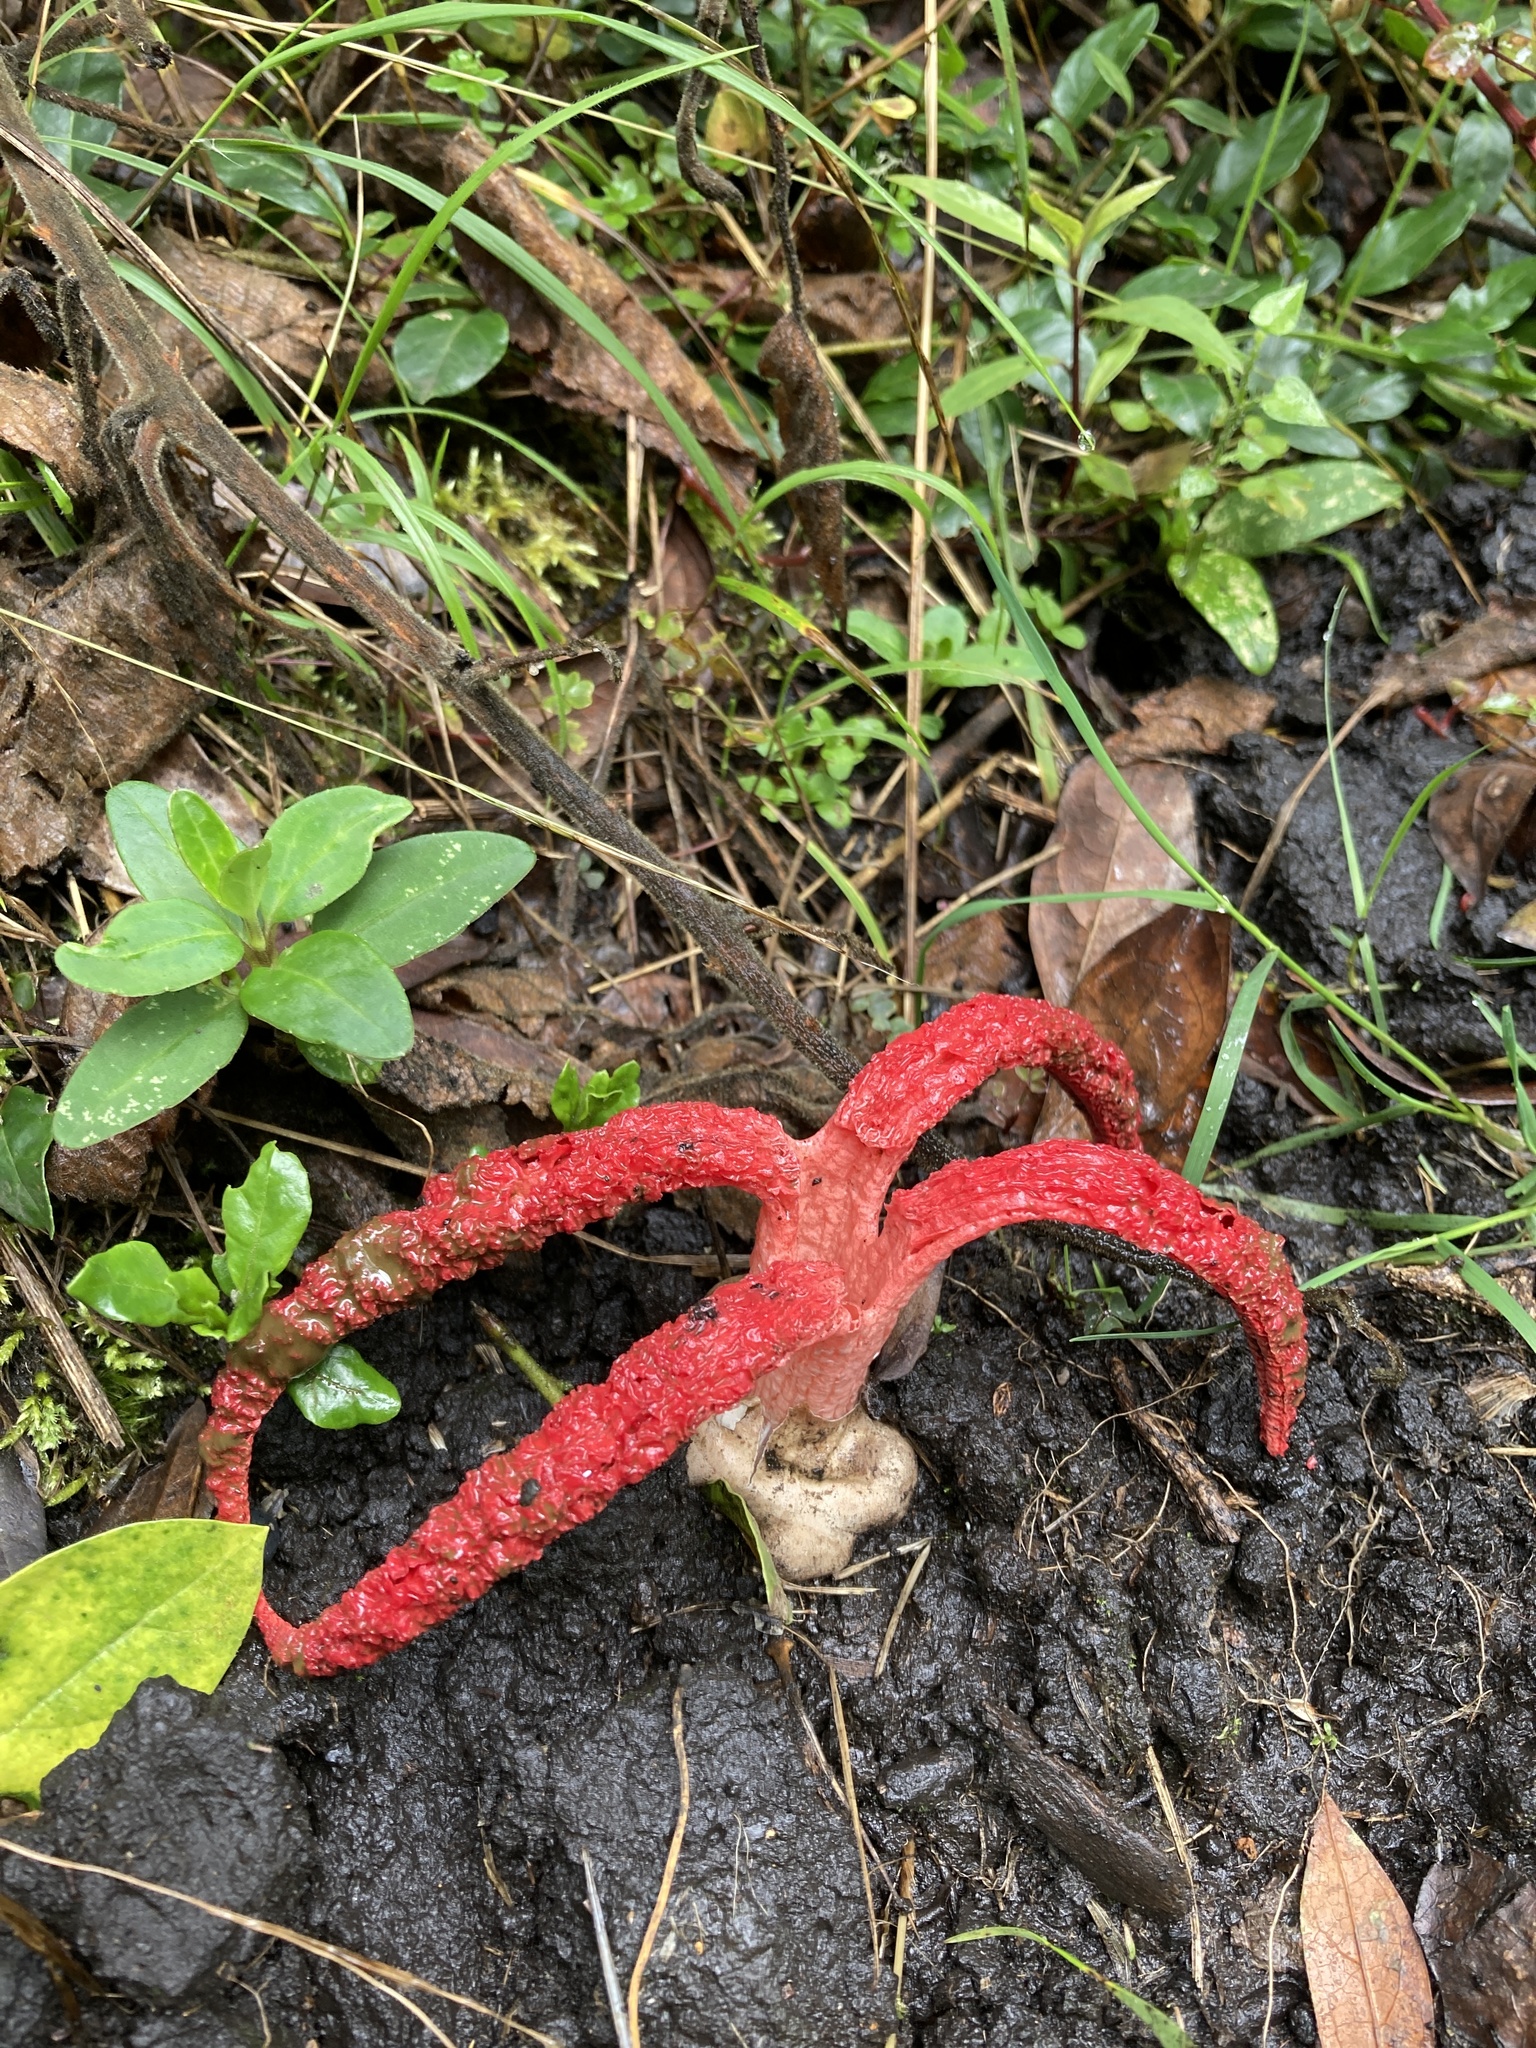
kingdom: Fungi
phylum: Basidiomycota
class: Agaricomycetes
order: Phallales
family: Phallaceae
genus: Clathrus
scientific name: Clathrus archeri
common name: Devil's fingers
